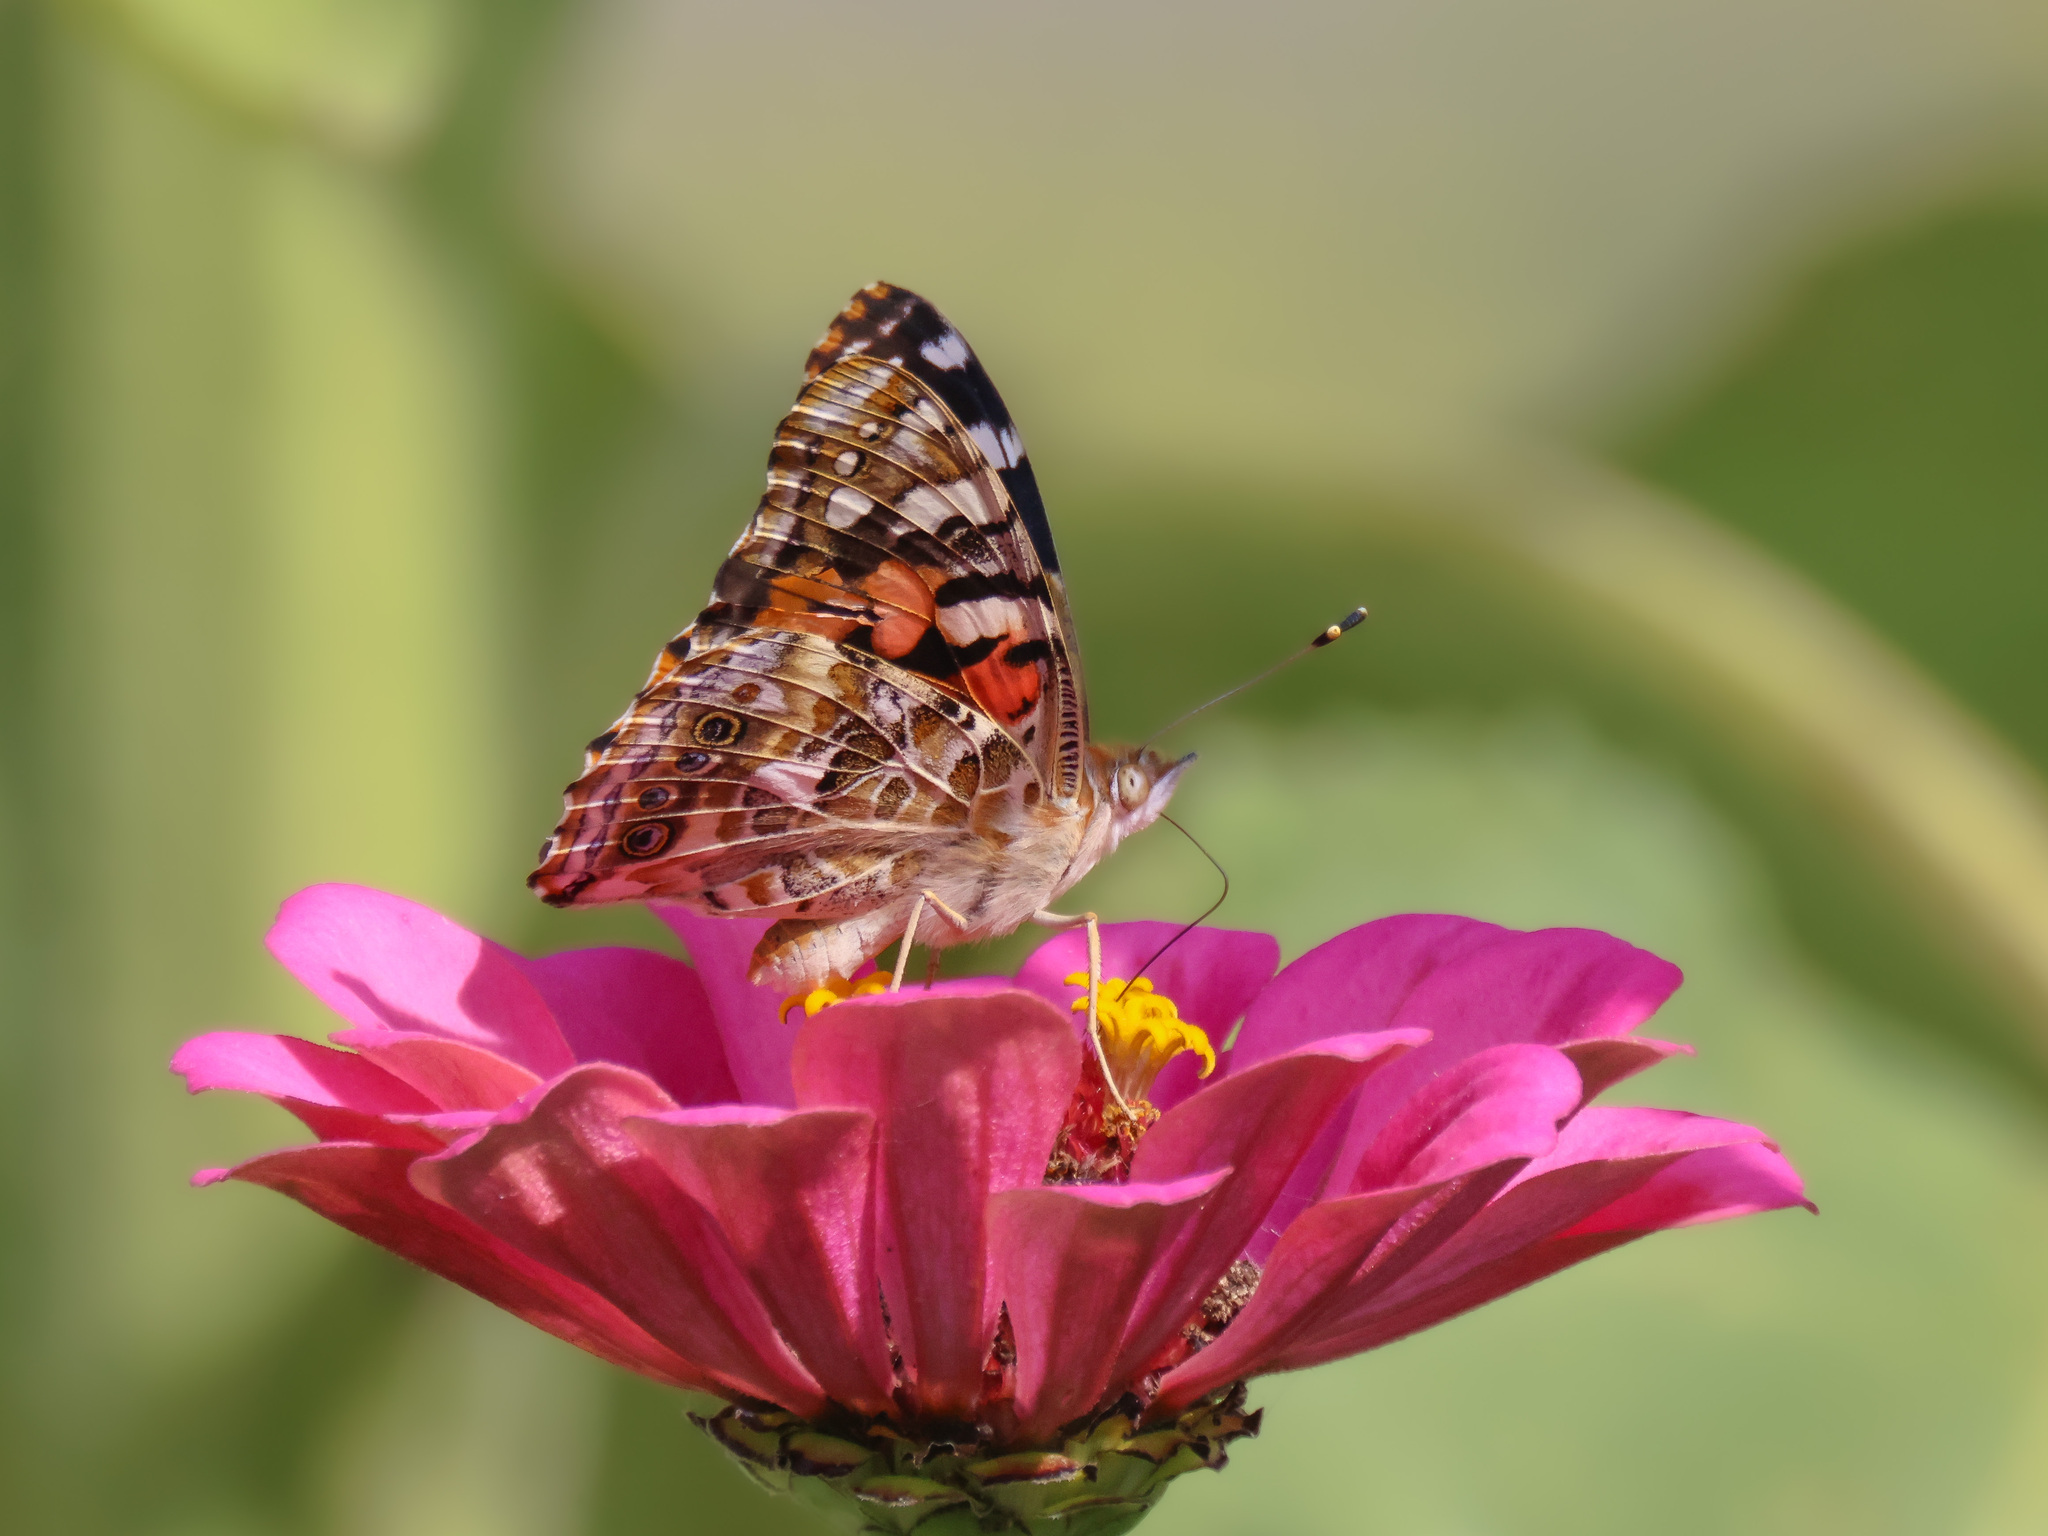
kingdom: Animalia
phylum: Arthropoda
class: Insecta
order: Lepidoptera
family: Nymphalidae
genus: Vanessa
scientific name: Vanessa cardui
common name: Painted lady
